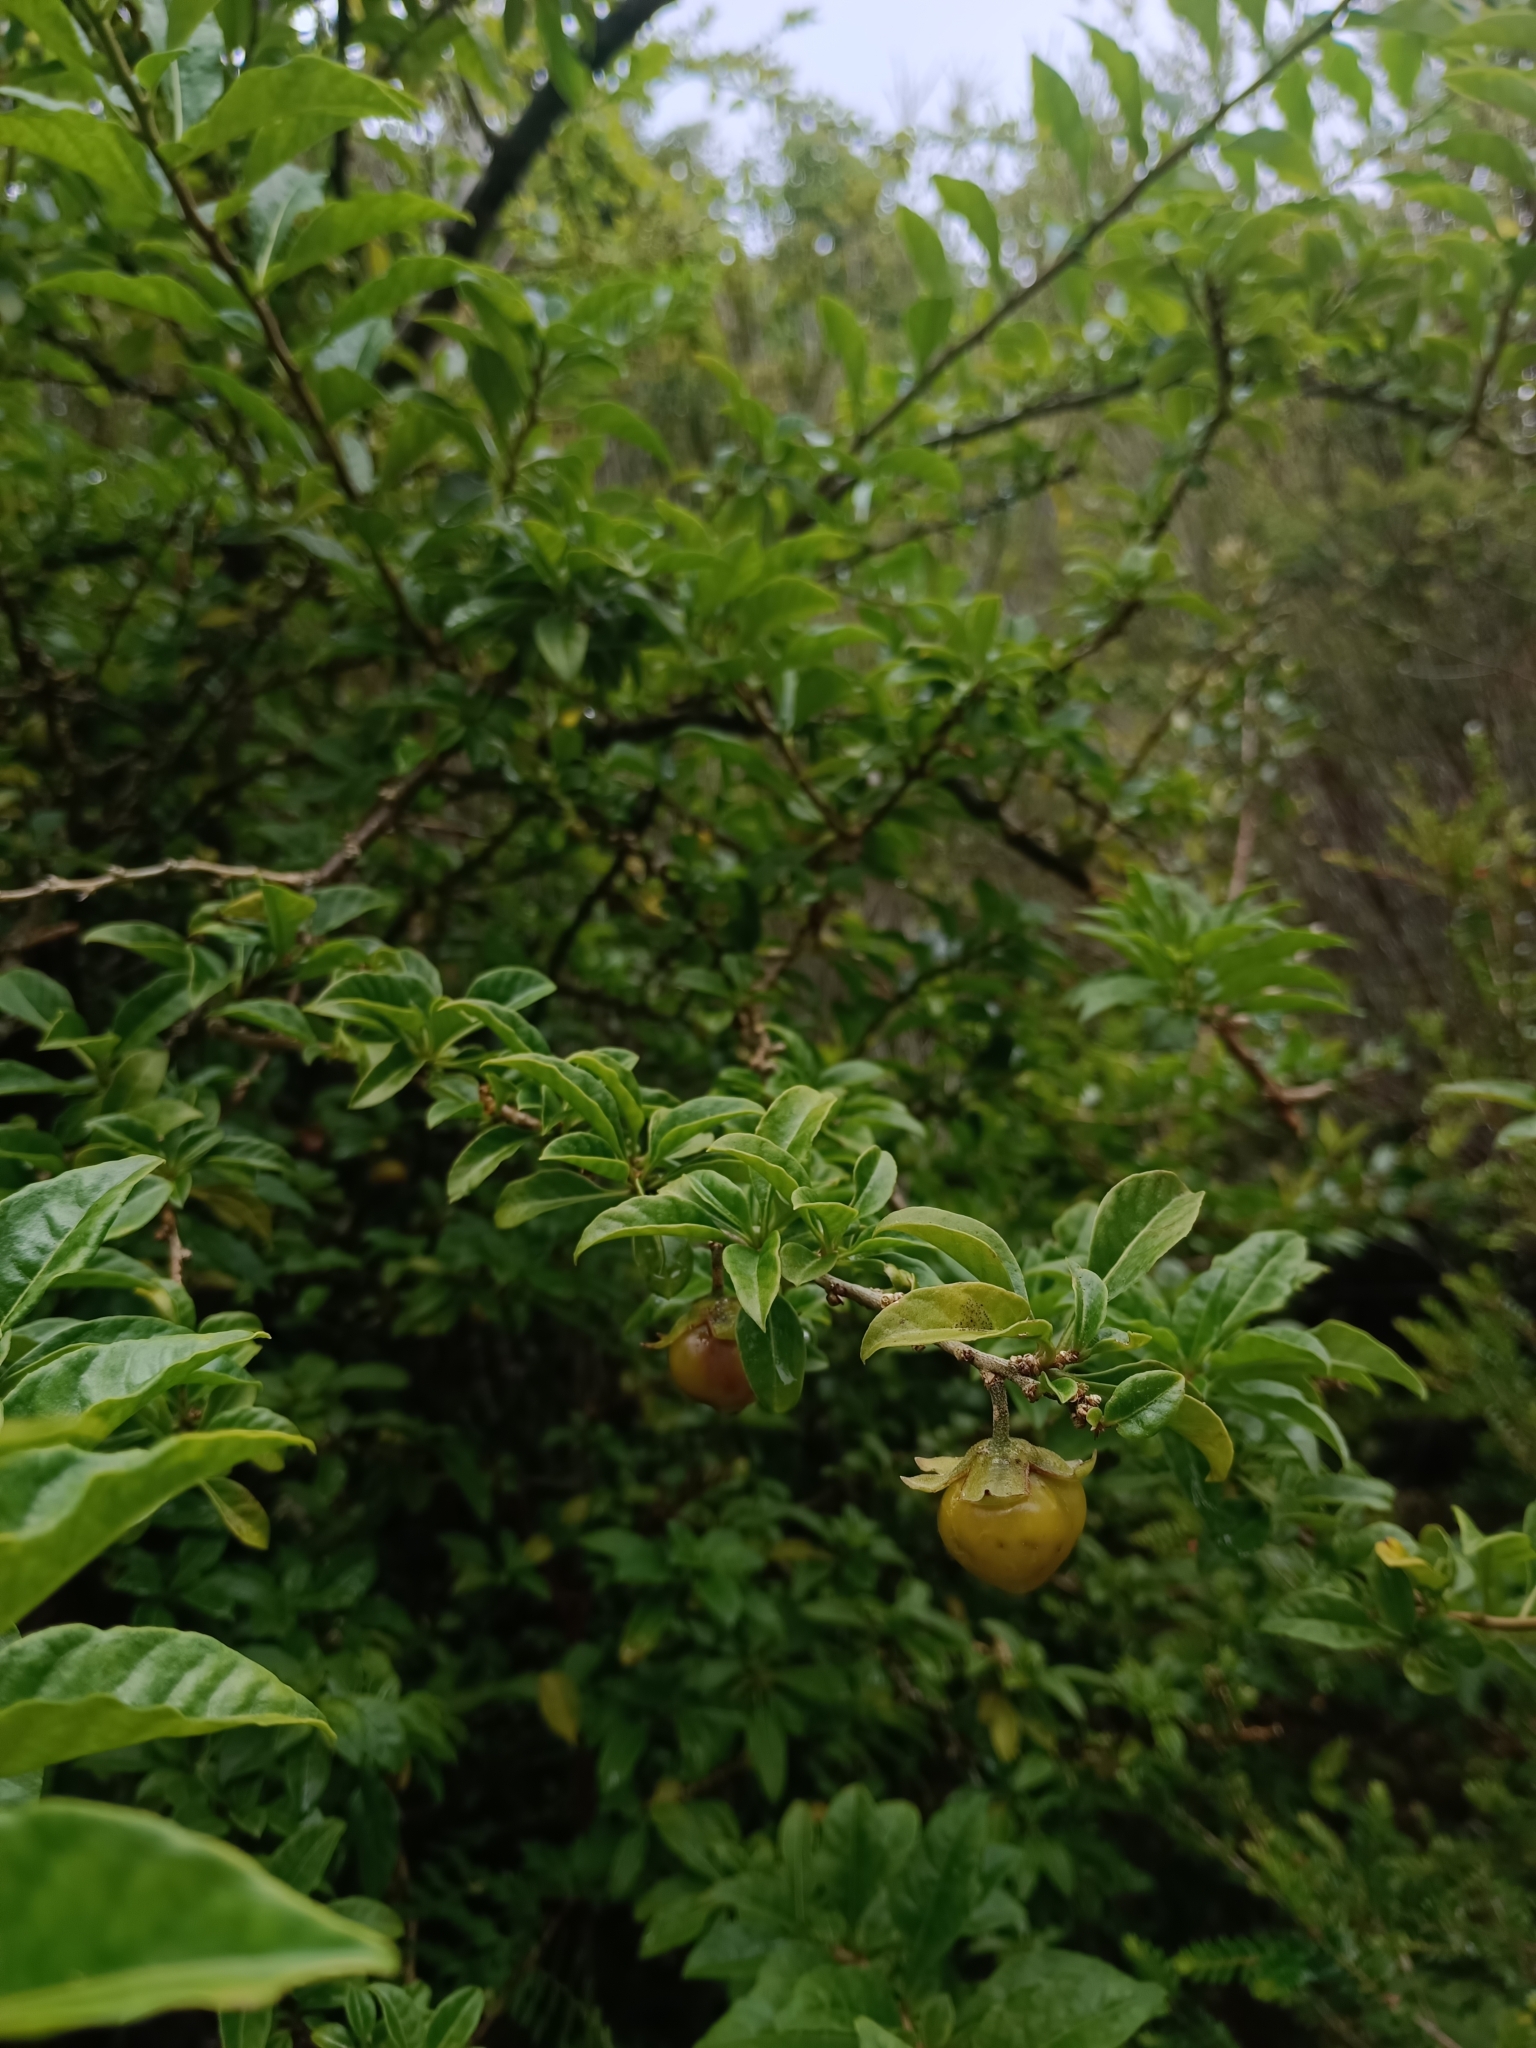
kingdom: Plantae
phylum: Tracheophyta
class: Magnoliopsida
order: Solanales
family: Solanaceae
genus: Latua
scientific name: Latua pubiflora
